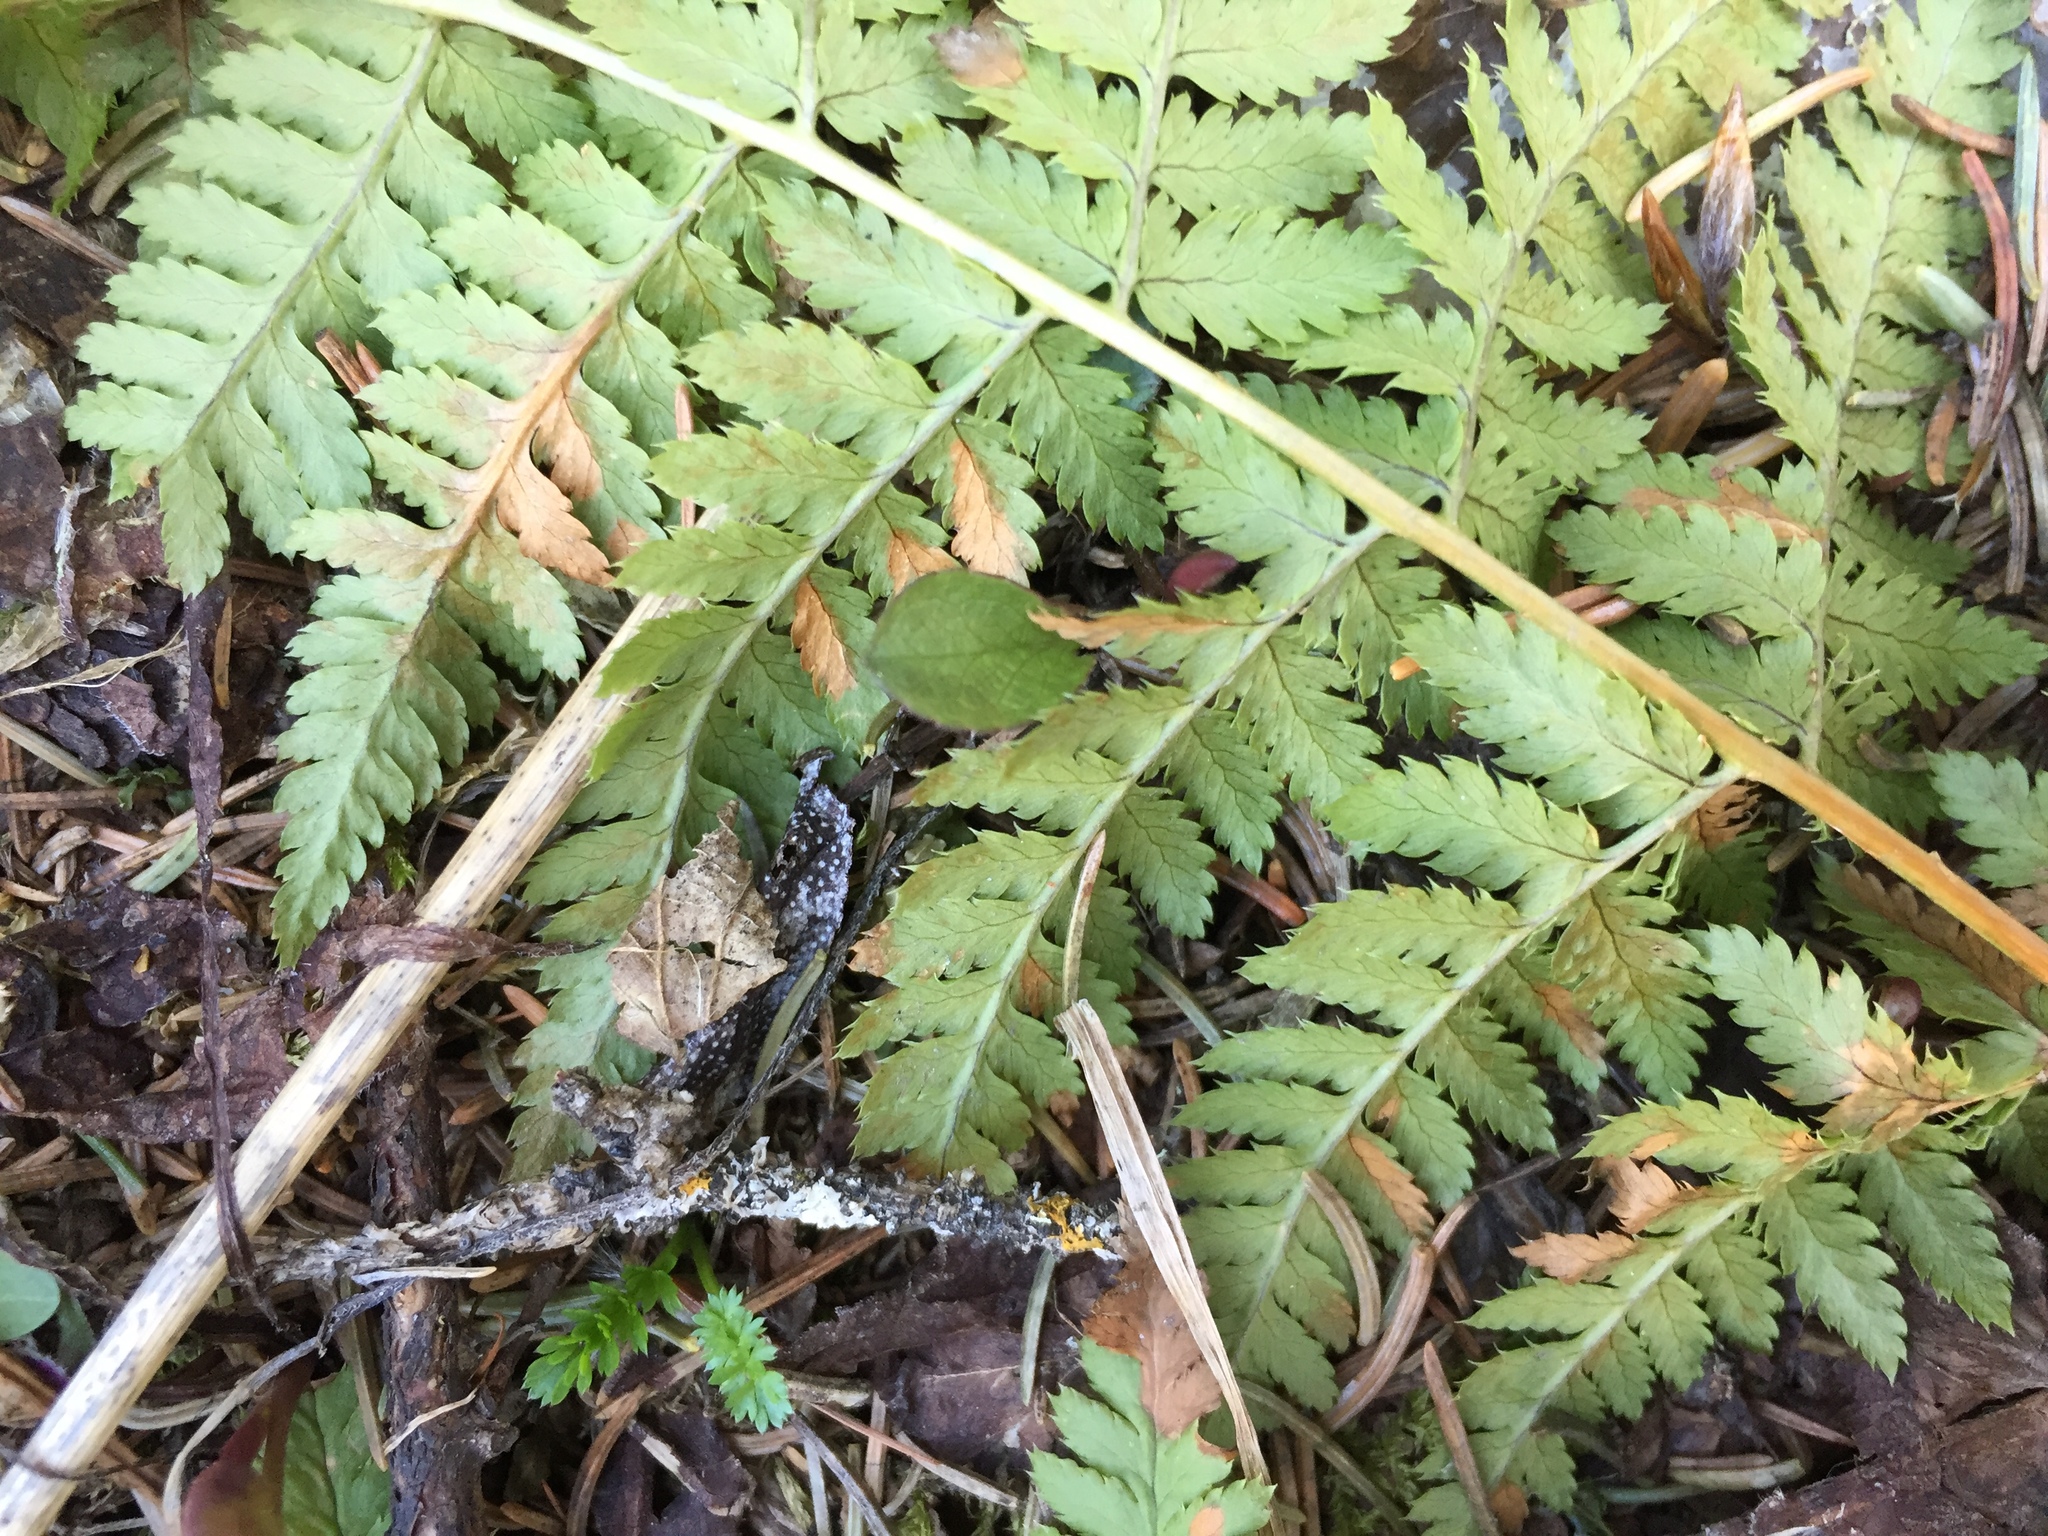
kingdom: Plantae
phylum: Tracheophyta
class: Polypodiopsida
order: Polypodiales
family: Dryopteridaceae
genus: Dryopteris
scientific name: Dryopteris carthusiana
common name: Narrow buckler-fern
